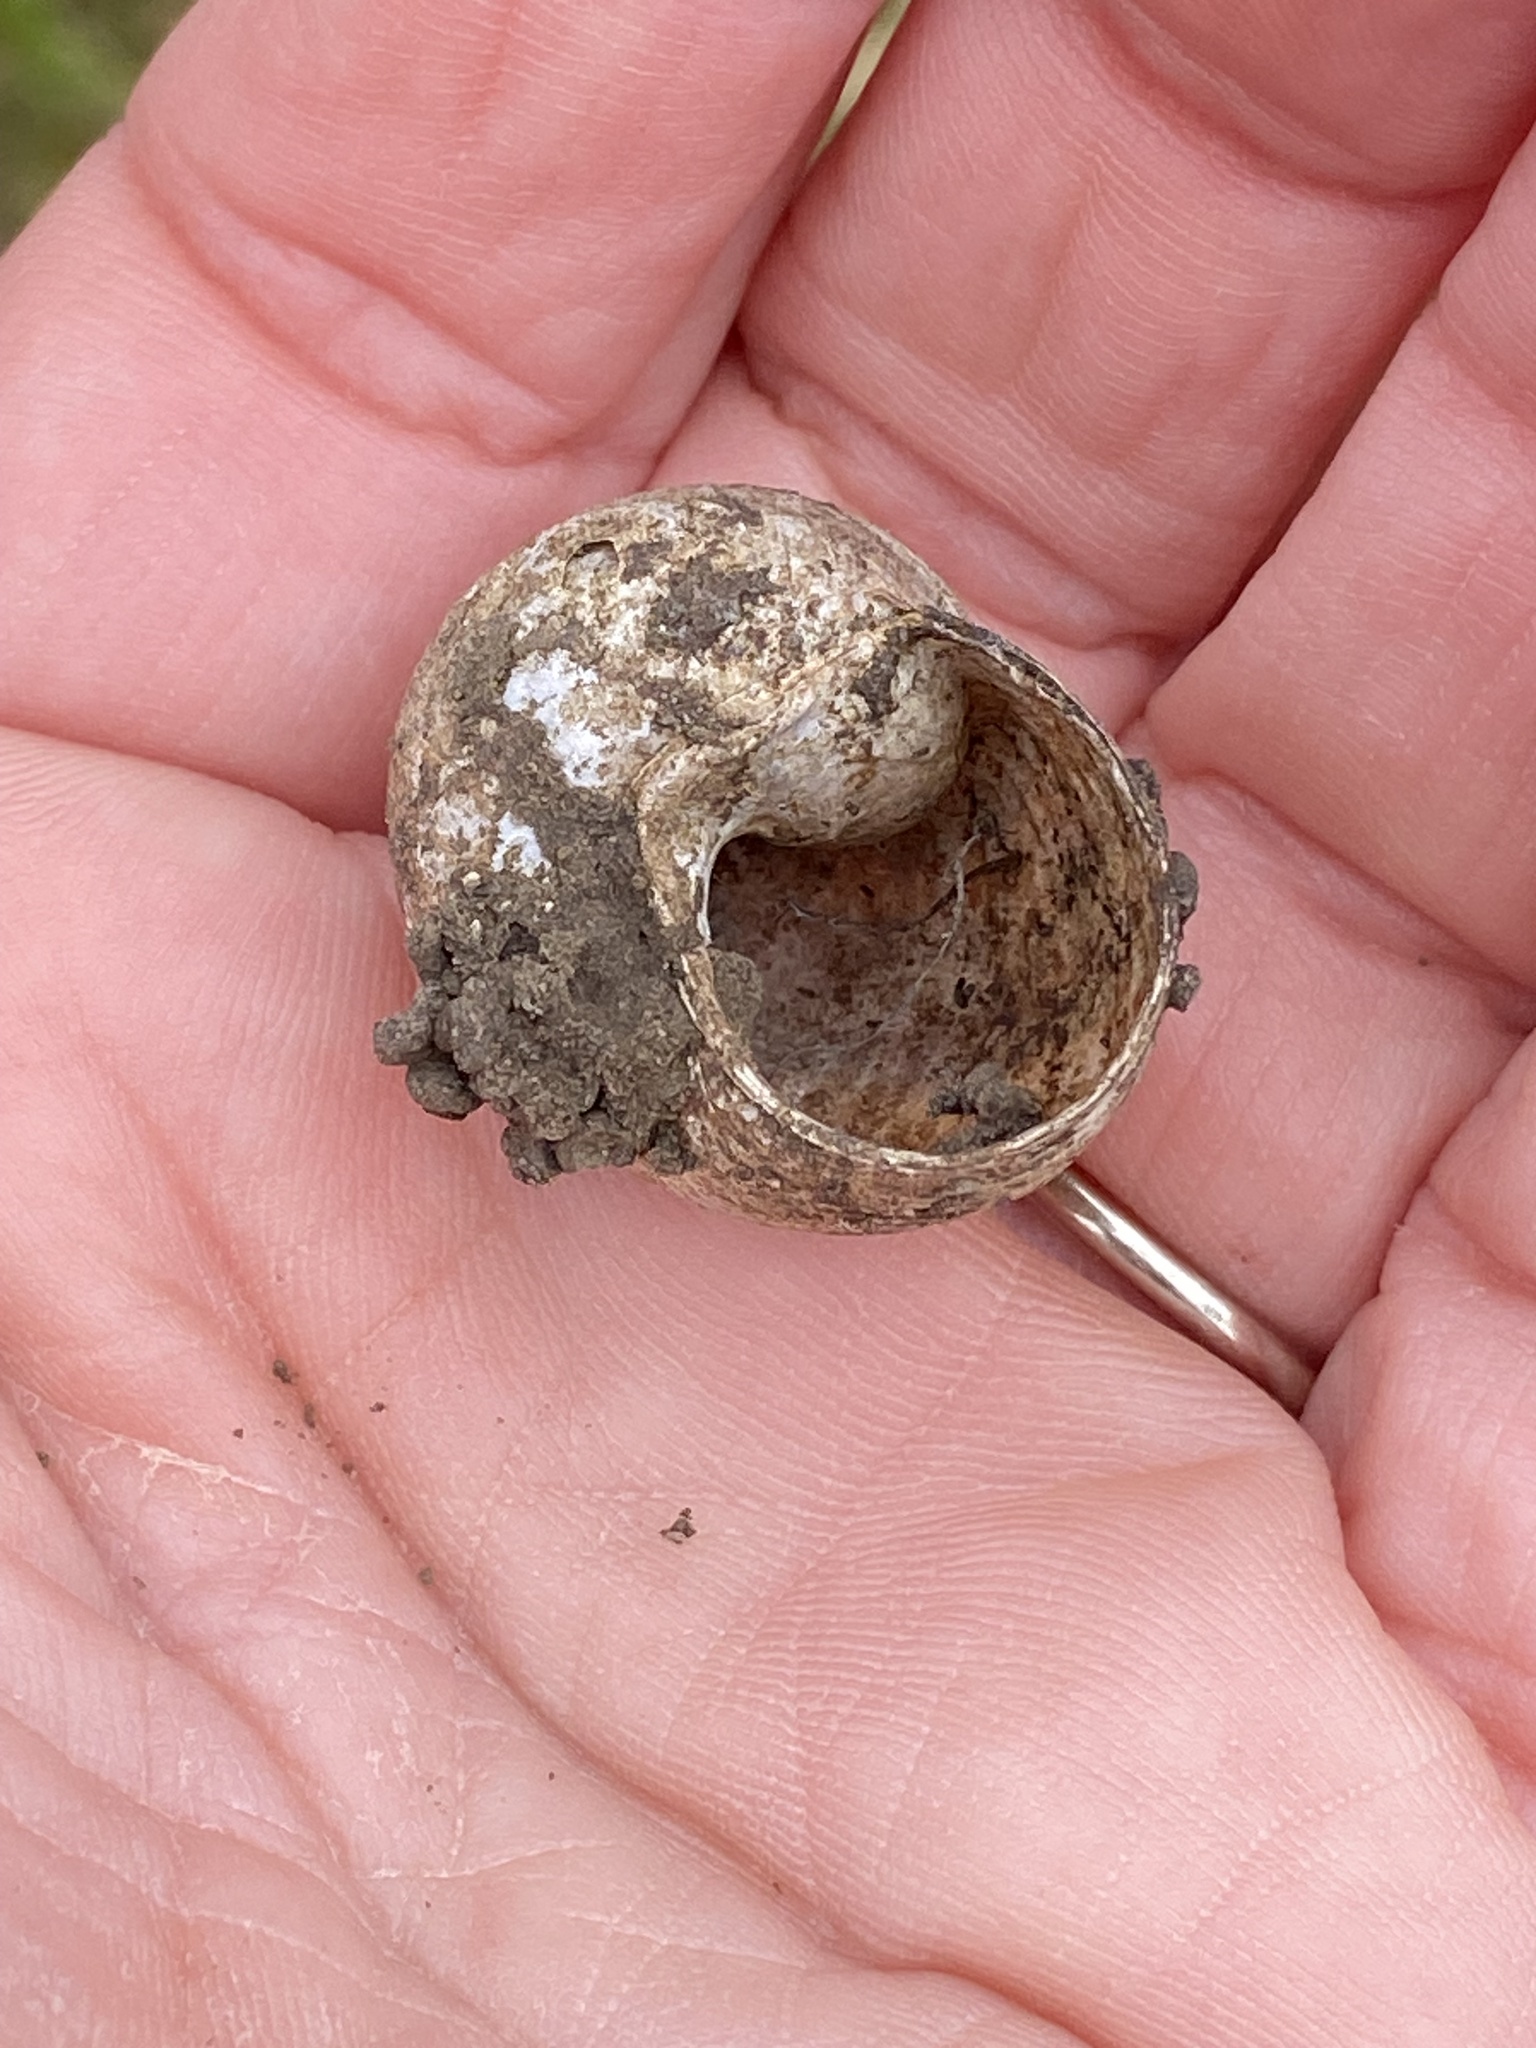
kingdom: Animalia
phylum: Mollusca
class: Gastropoda
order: Stylommatophora
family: Helicidae
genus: Cornu
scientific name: Cornu aspersum
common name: Brown garden snail
